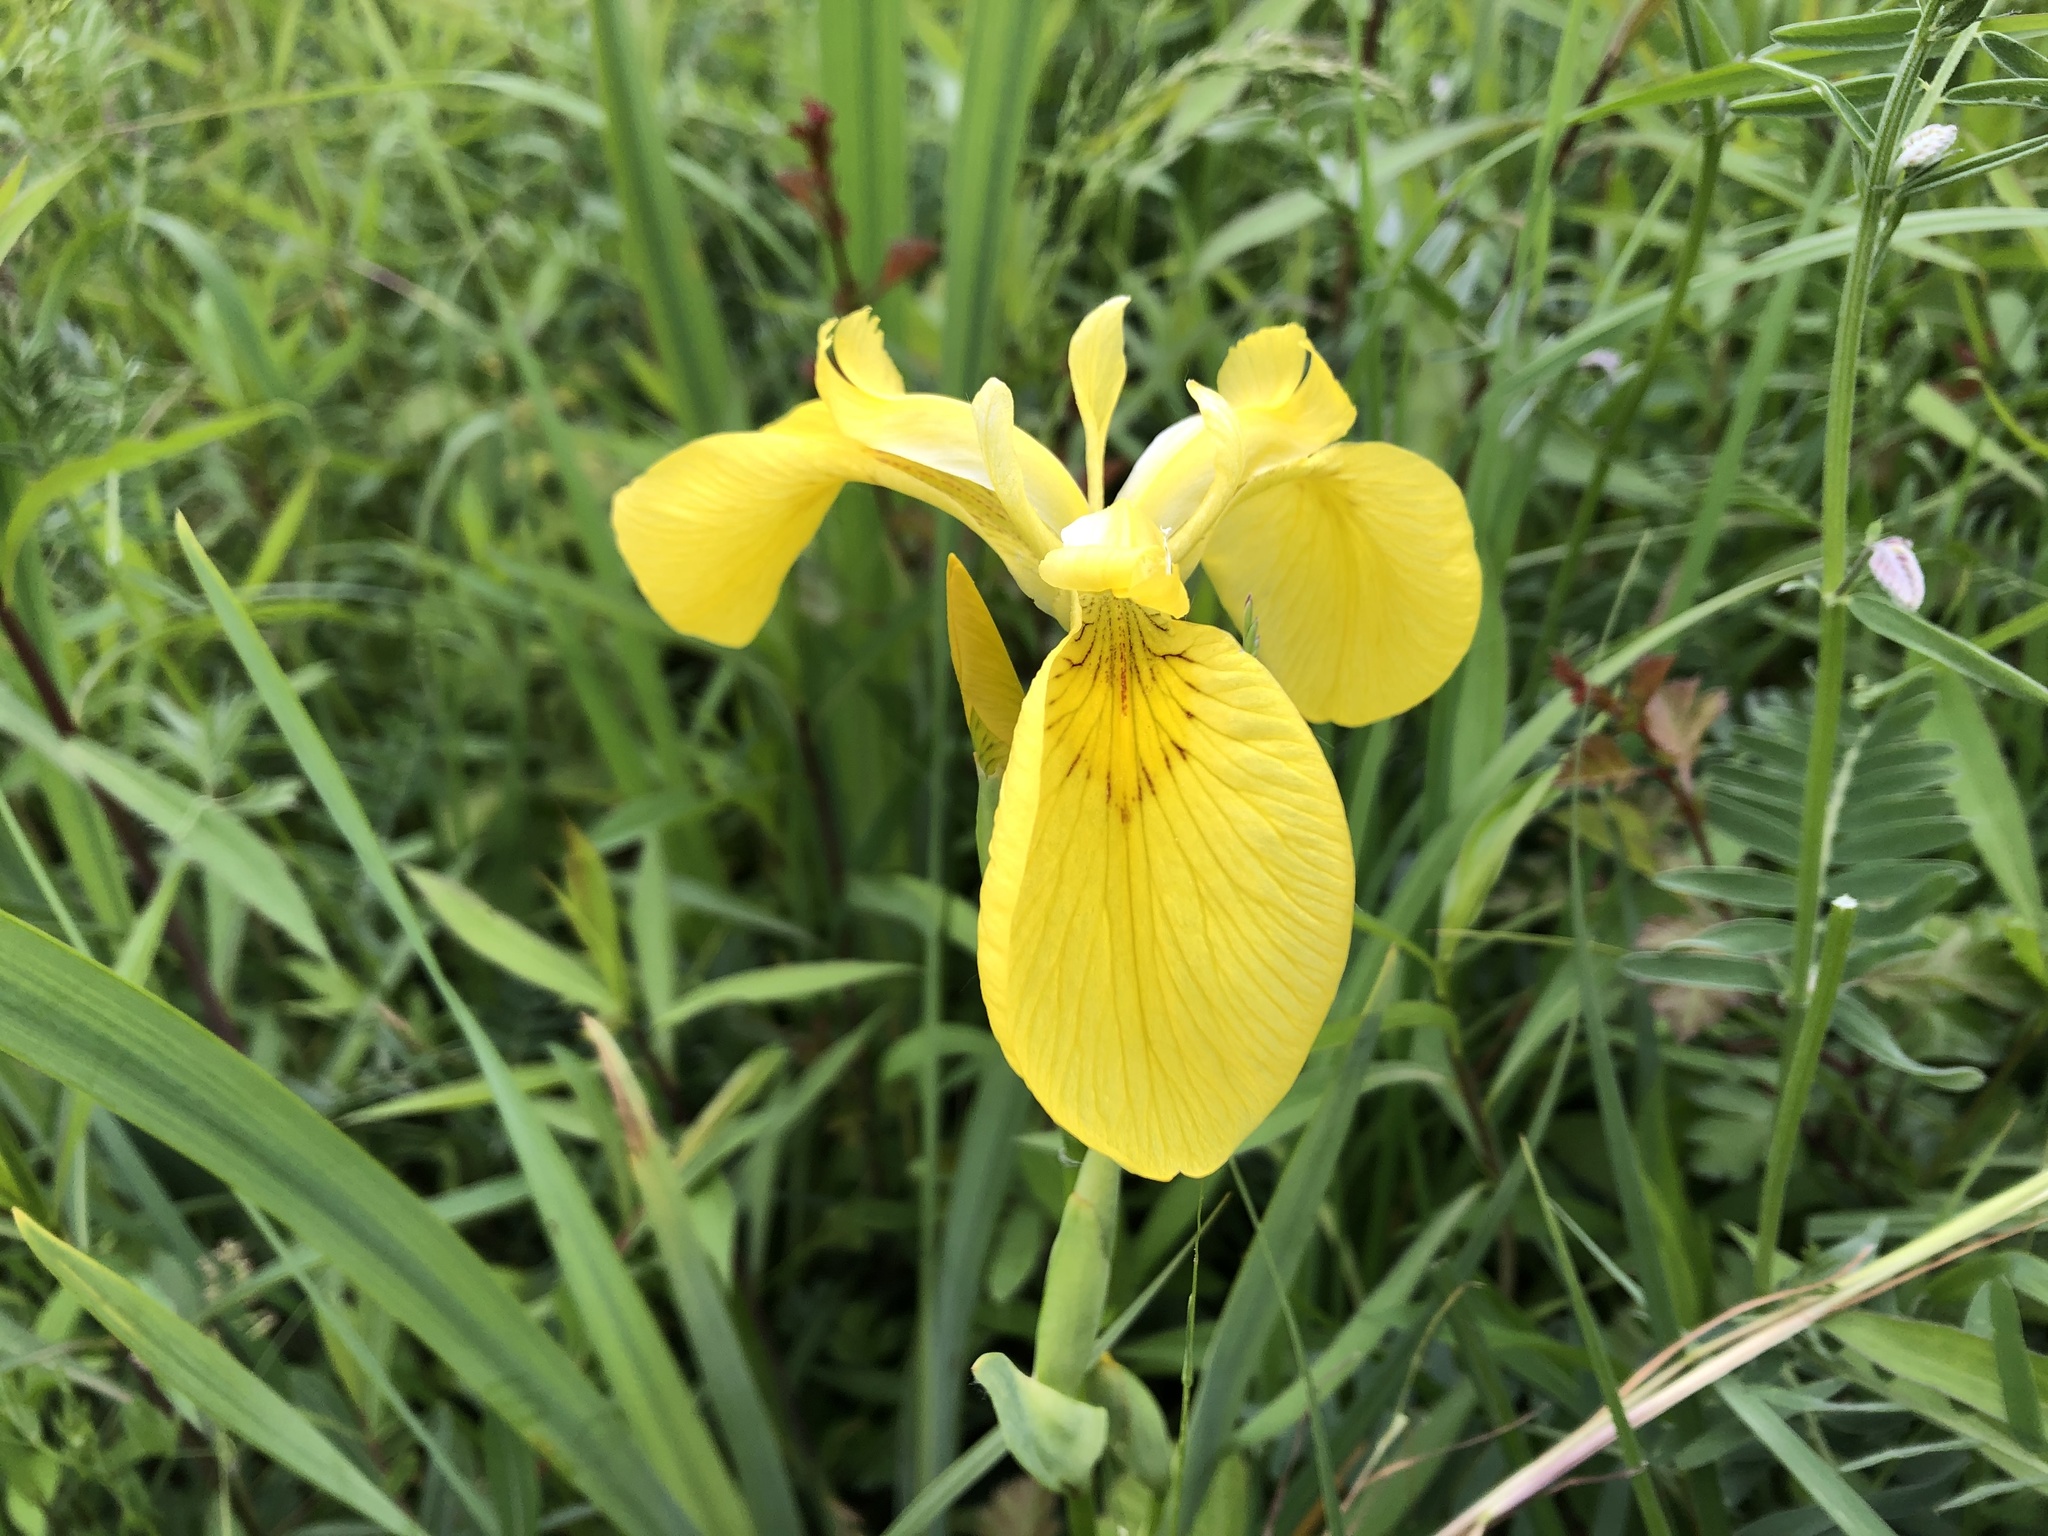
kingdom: Plantae
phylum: Tracheophyta
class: Liliopsida
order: Asparagales
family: Iridaceae
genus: Iris
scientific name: Iris pseudacorus
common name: Yellow flag
